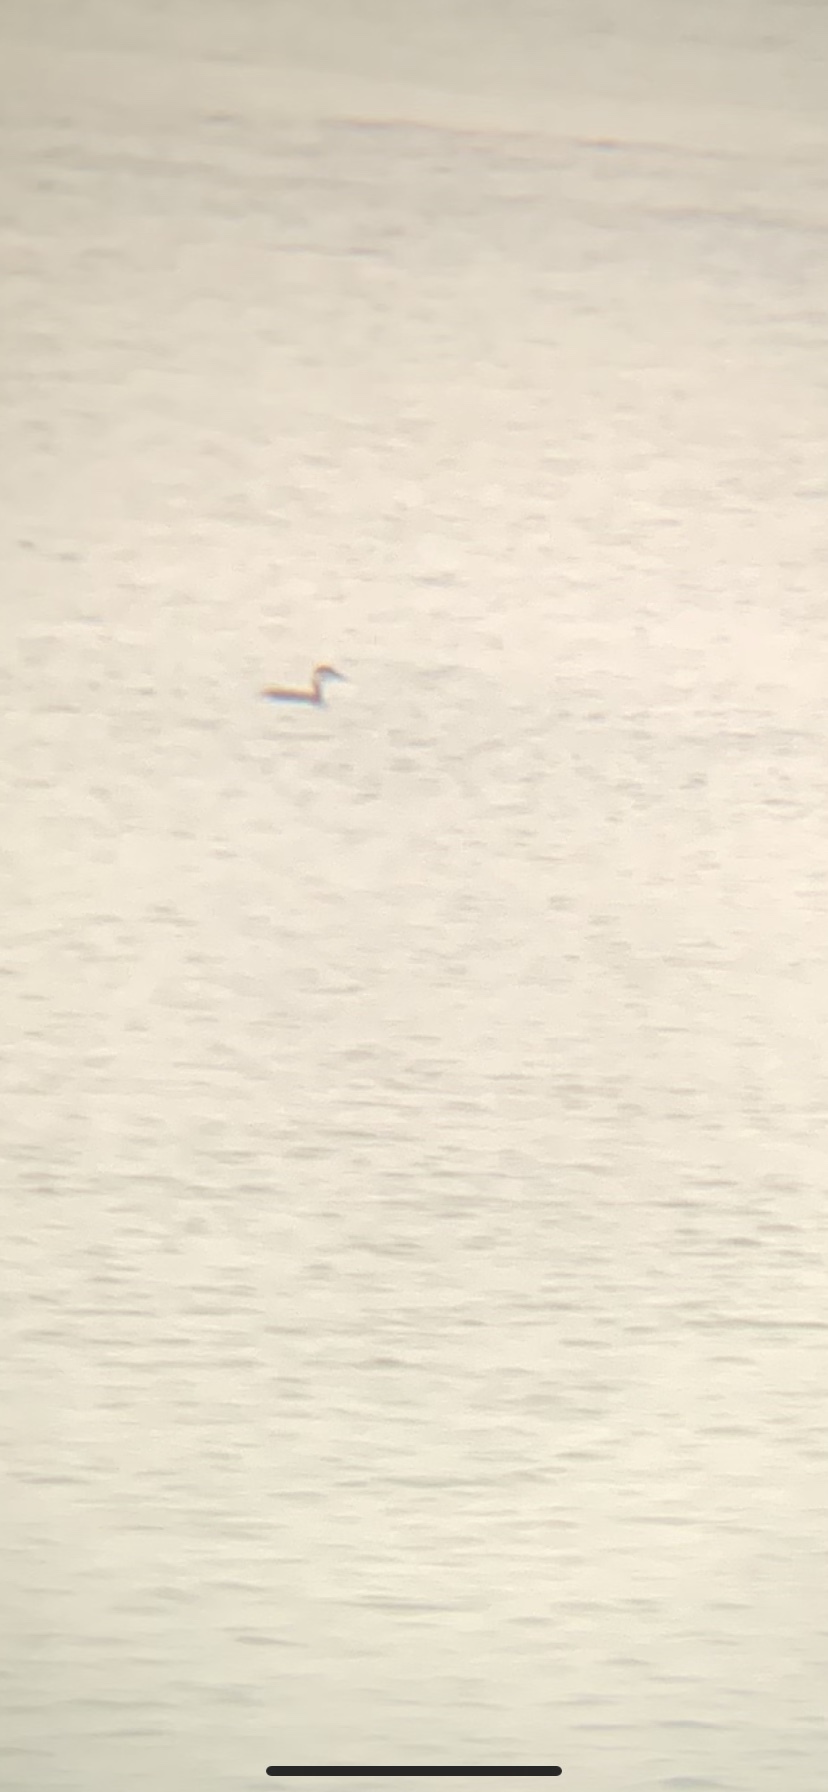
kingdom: Animalia
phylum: Chordata
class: Aves
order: Podicipediformes
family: Podicipedidae
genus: Podiceps
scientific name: Podiceps grisegena
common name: Red-necked grebe
